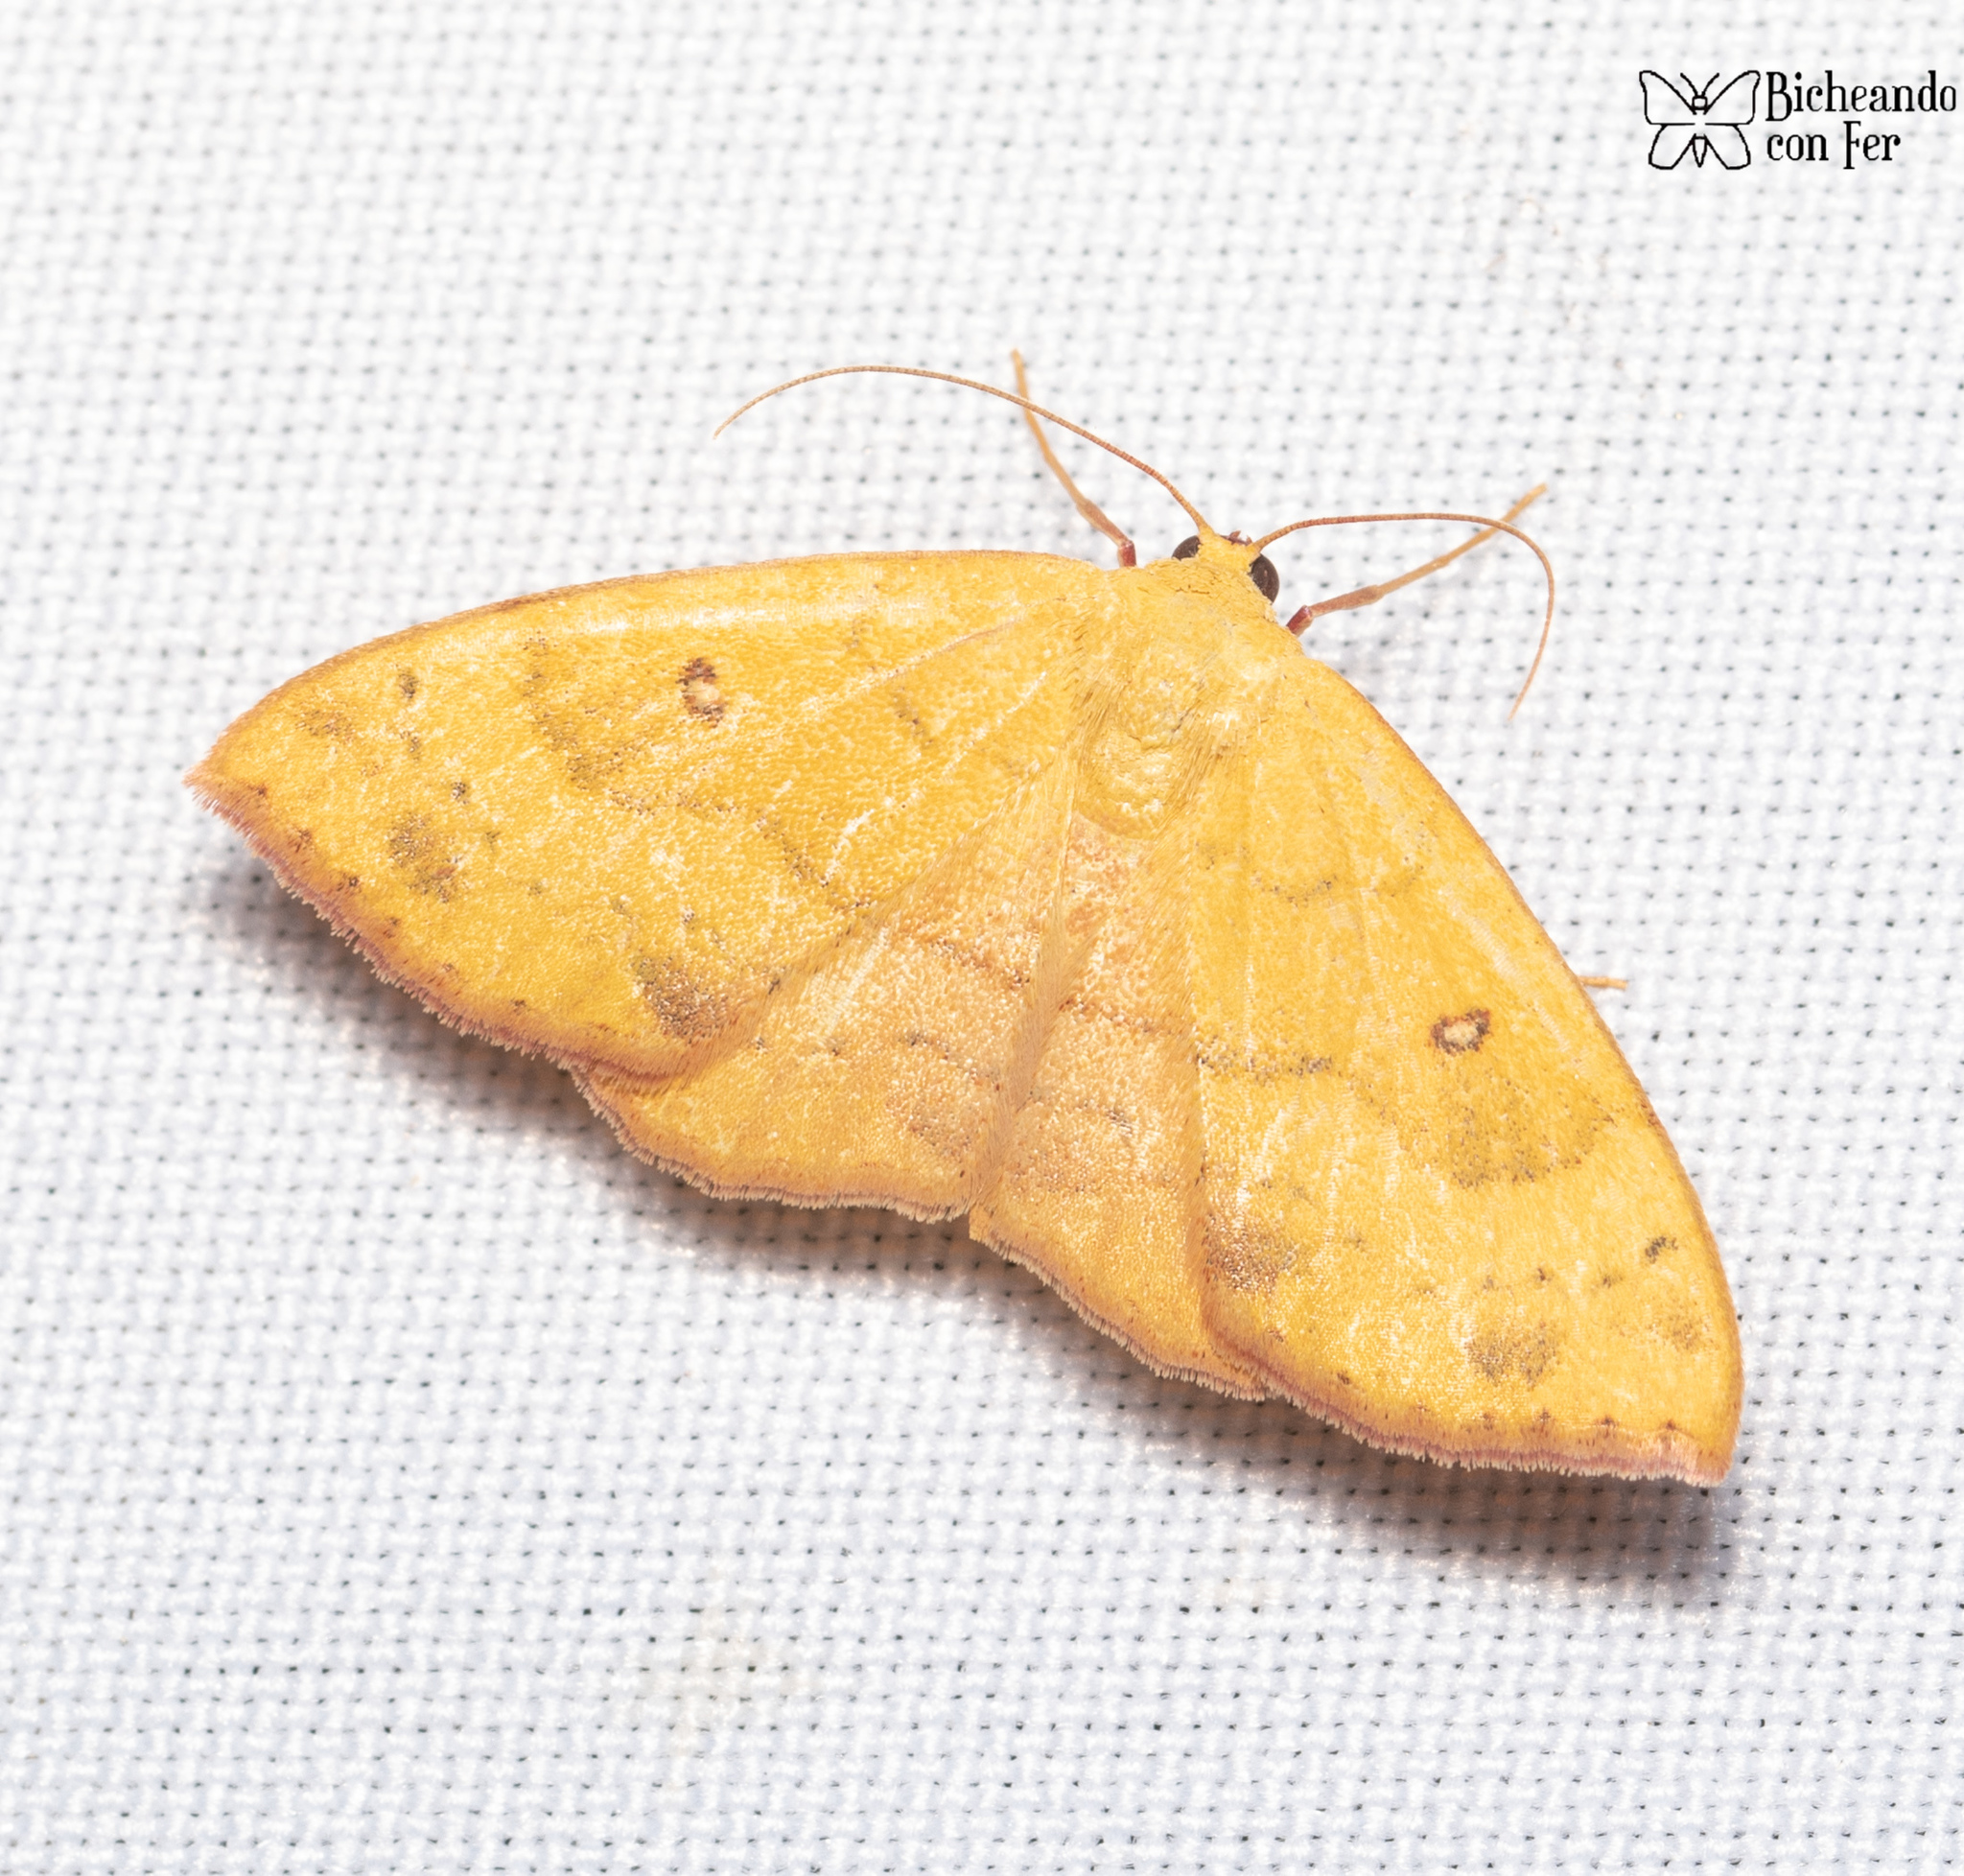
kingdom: Animalia
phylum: Arthropoda
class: Insecta
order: Lepidoptera
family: Geometridae
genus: Semaeopus
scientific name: Semaeopus ella
